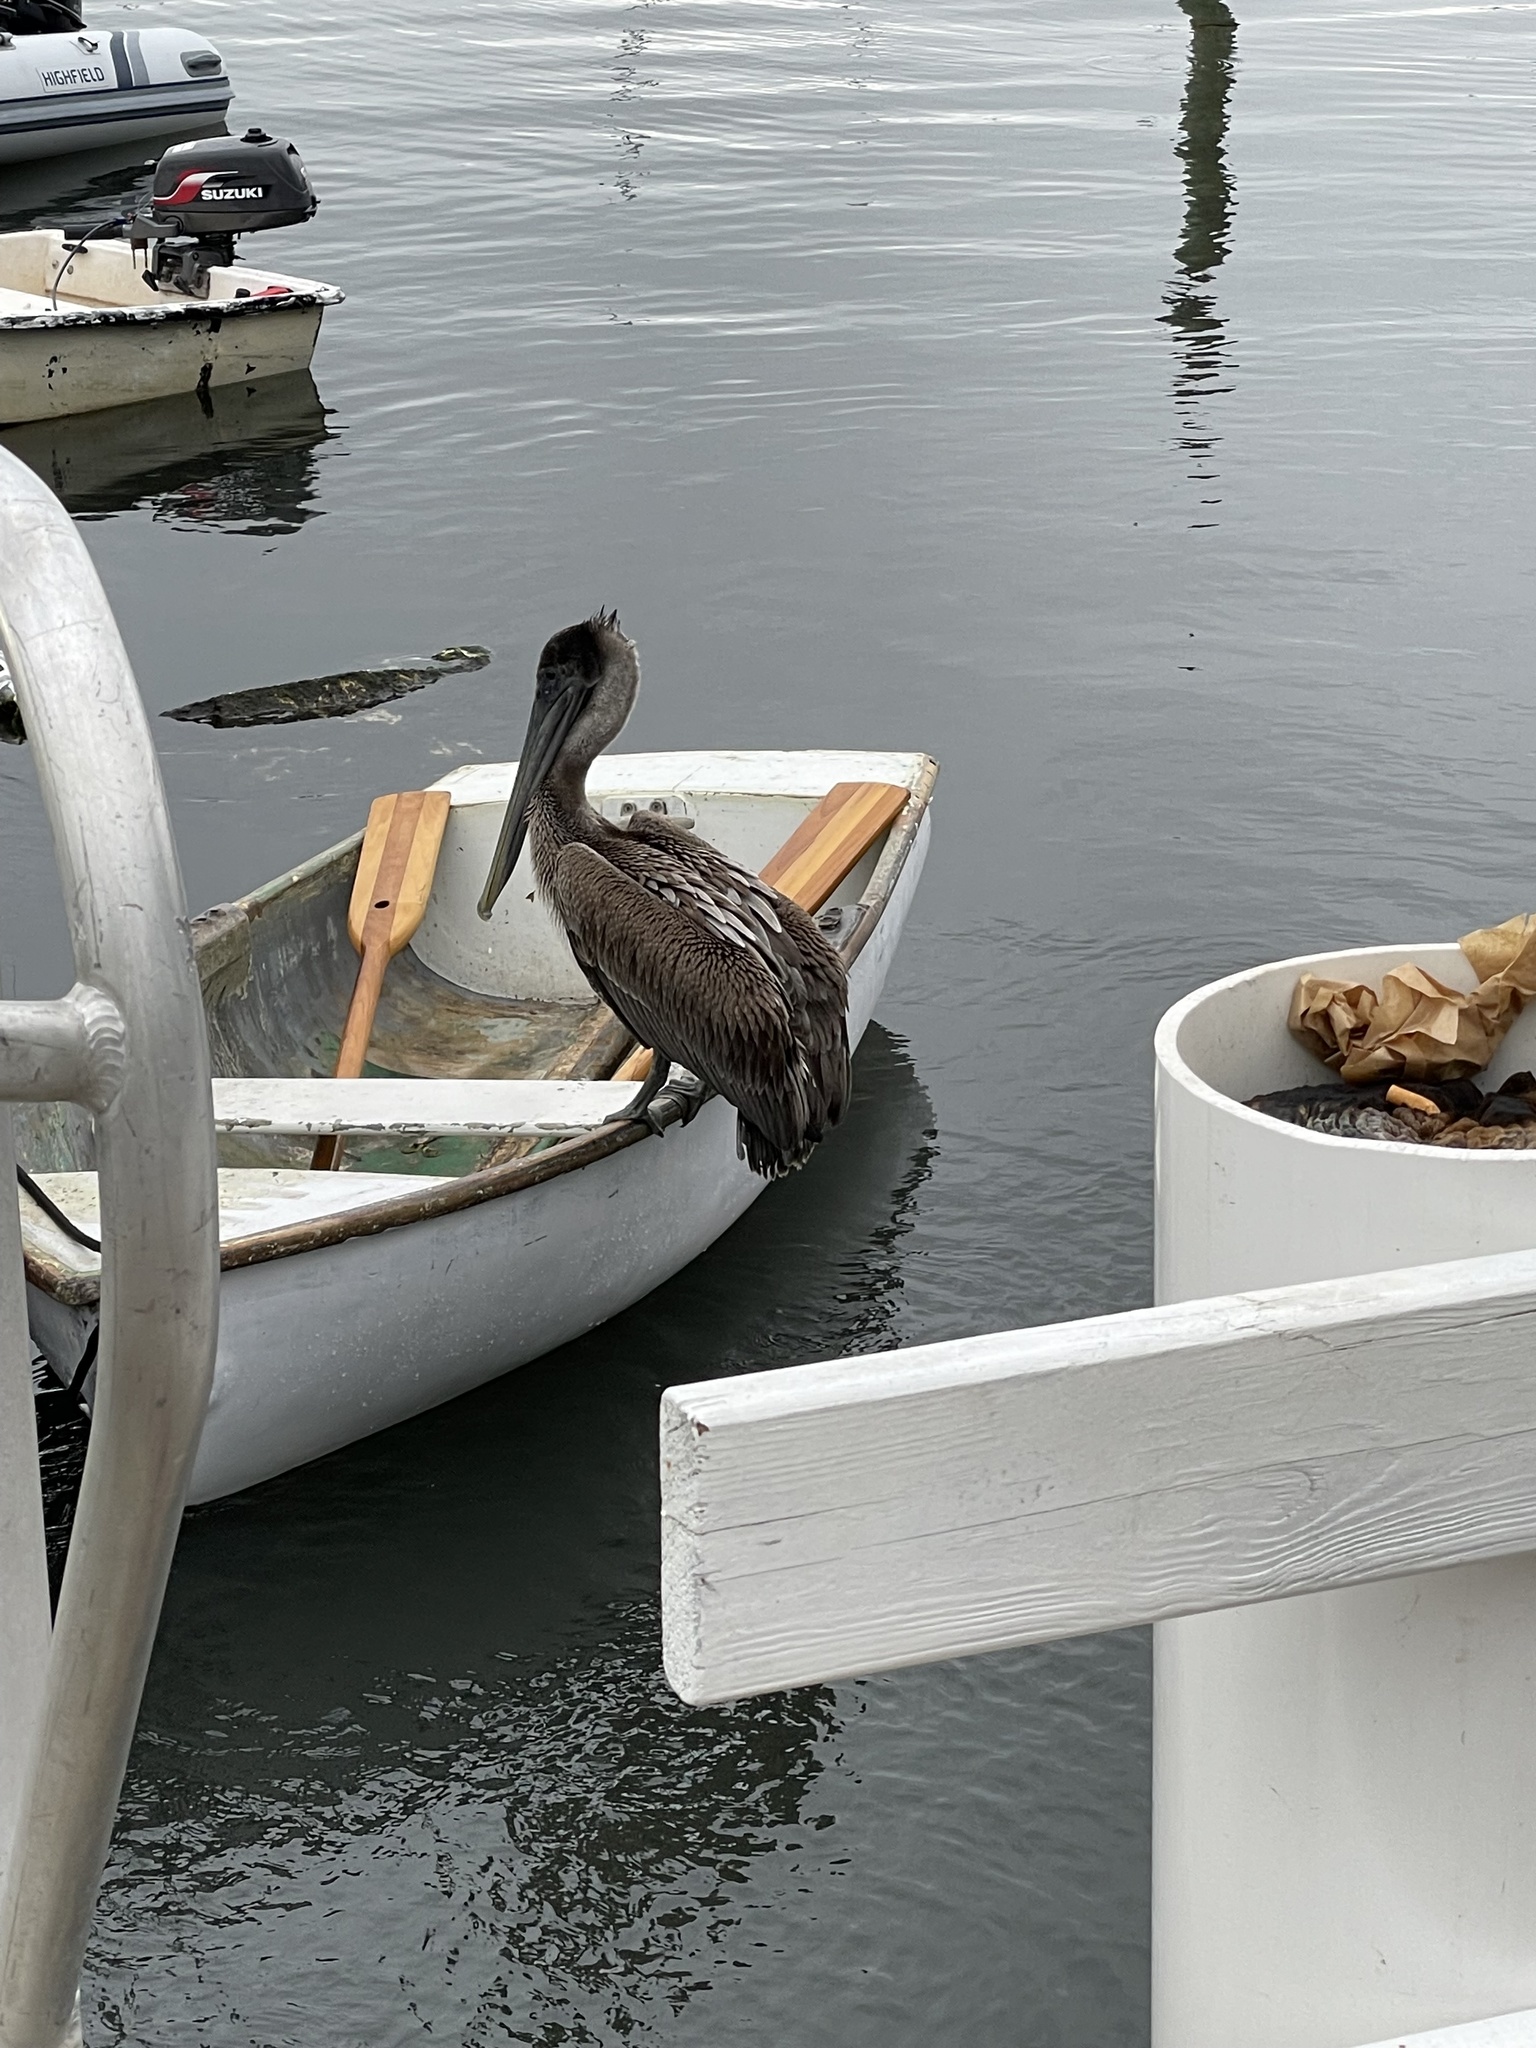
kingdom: Animalia
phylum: Chordata
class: Aves
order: Pelecaniformes
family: Pelecanidae
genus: Pelecanus
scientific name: Pelecanus occidentalis
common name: Brown pelican
